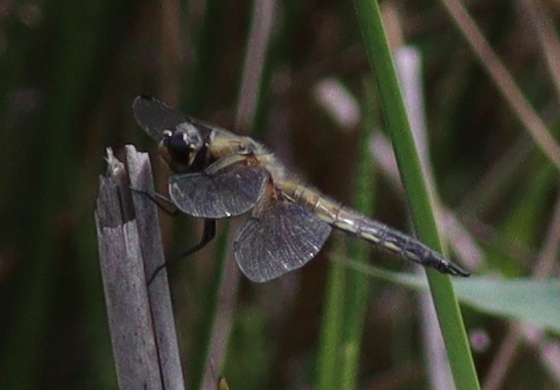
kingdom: Animalia
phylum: Arthropoda
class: Insecta
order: Odonata
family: Libellulidae
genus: Libellula
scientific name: Libellula quadrimaculata
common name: Four-spotted chaser
